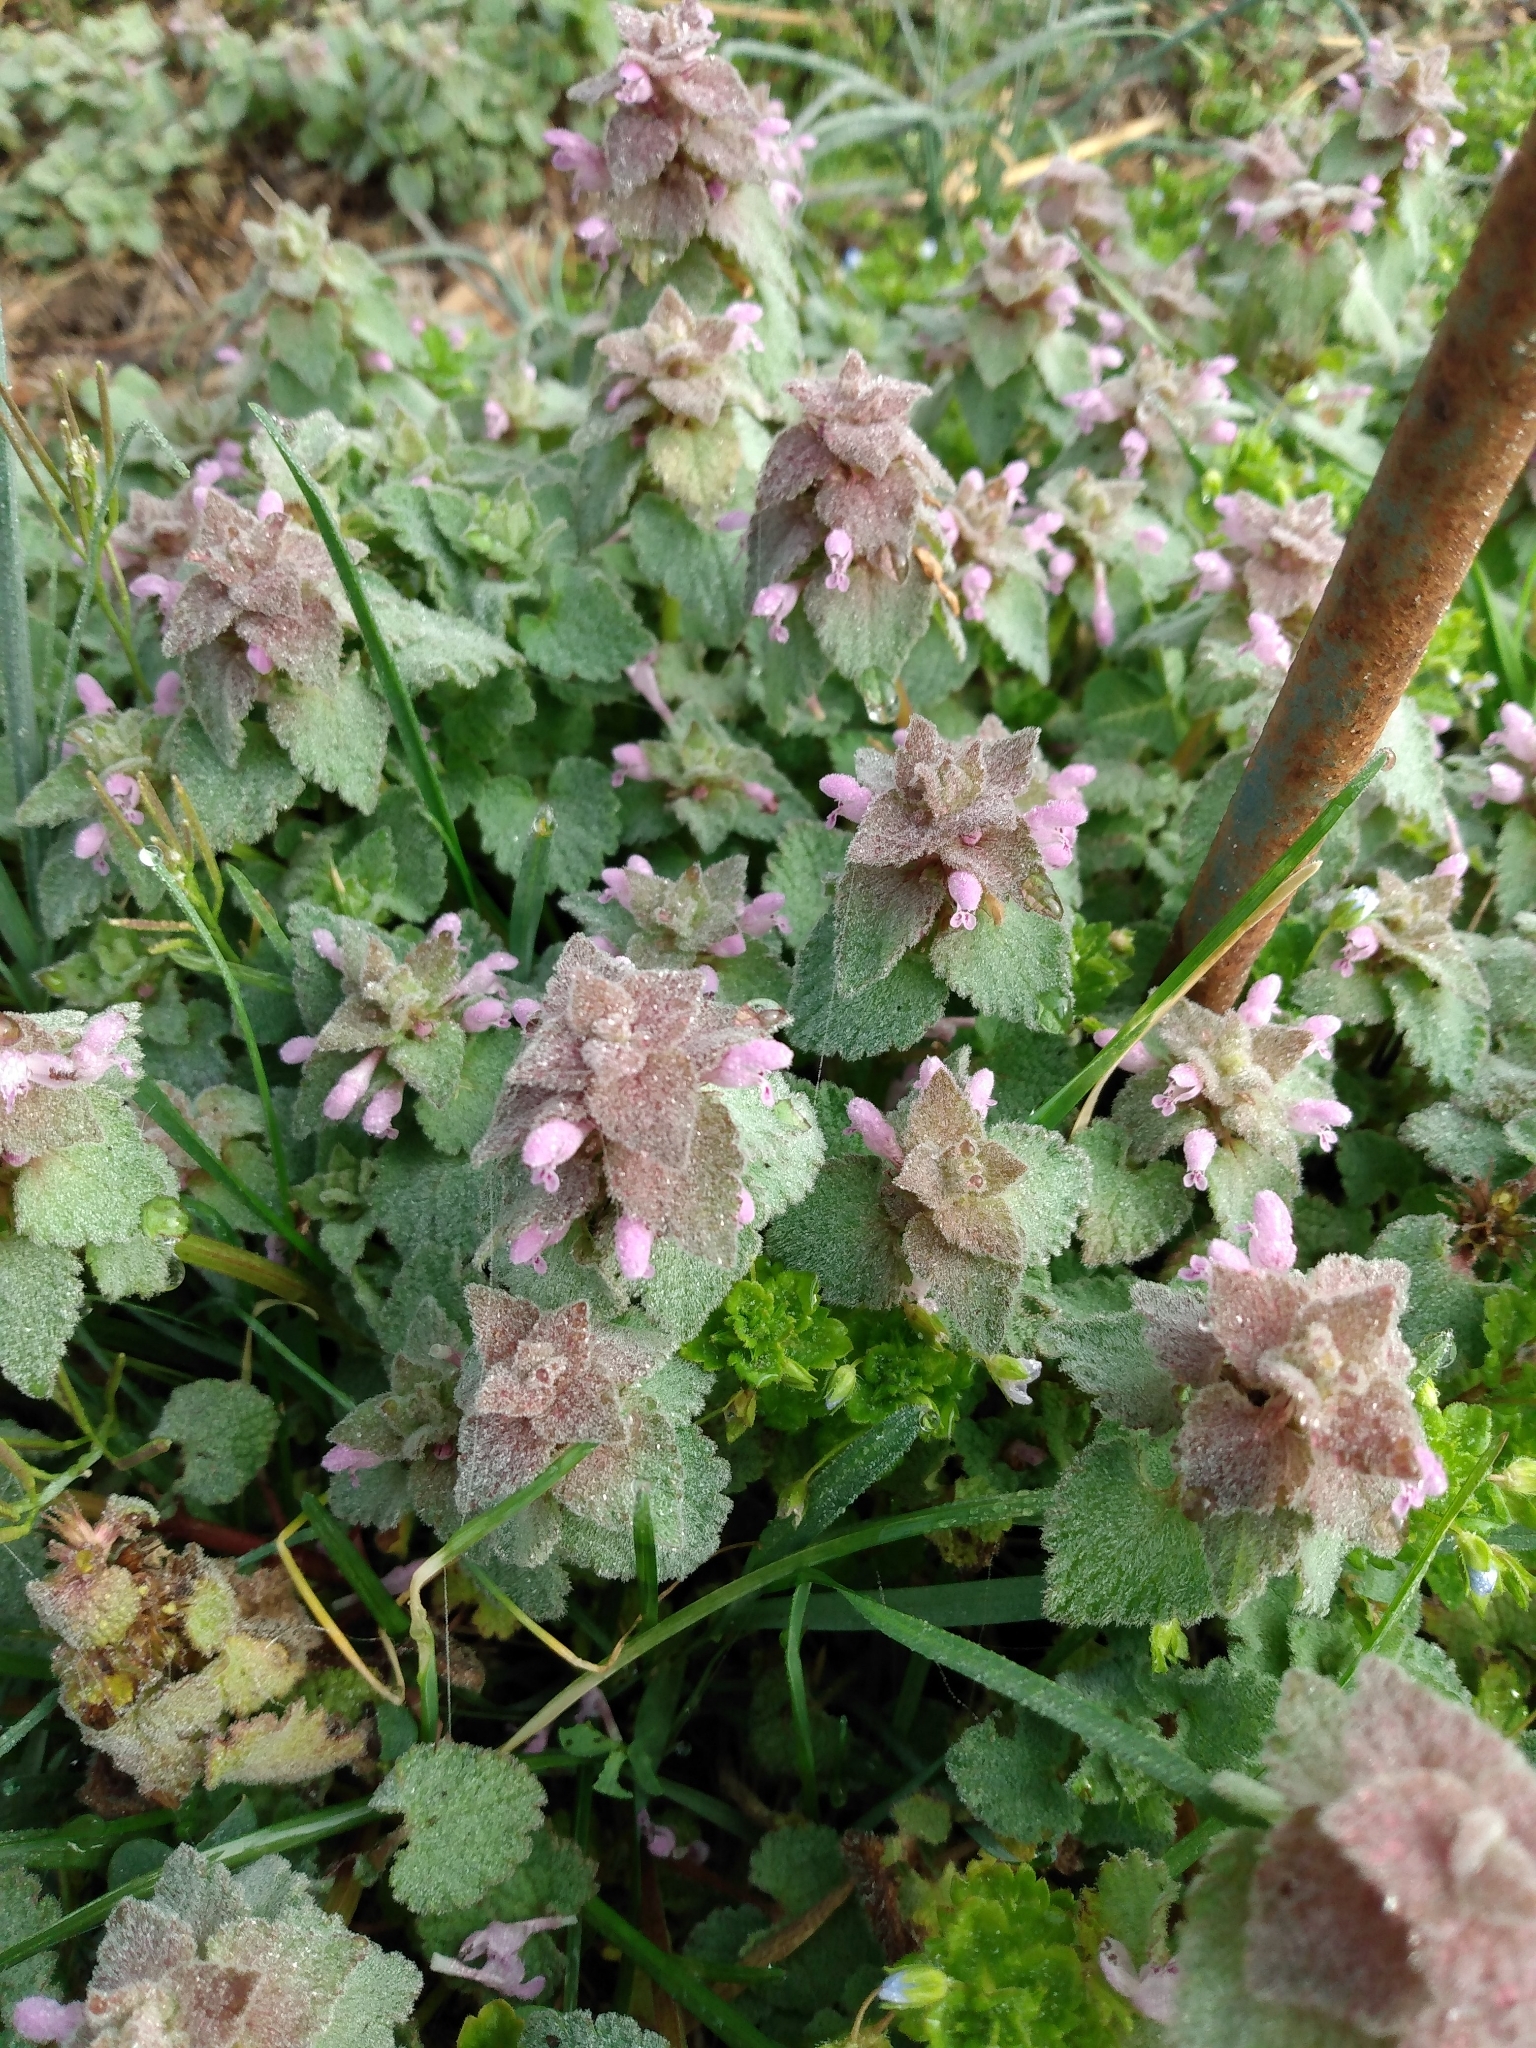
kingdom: Plantae
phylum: Tracheophyta
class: Magnoliopsida
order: Lamiales
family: Lamiaceae
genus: Lamium
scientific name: Lamium purpureum
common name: Red dead-nettle
